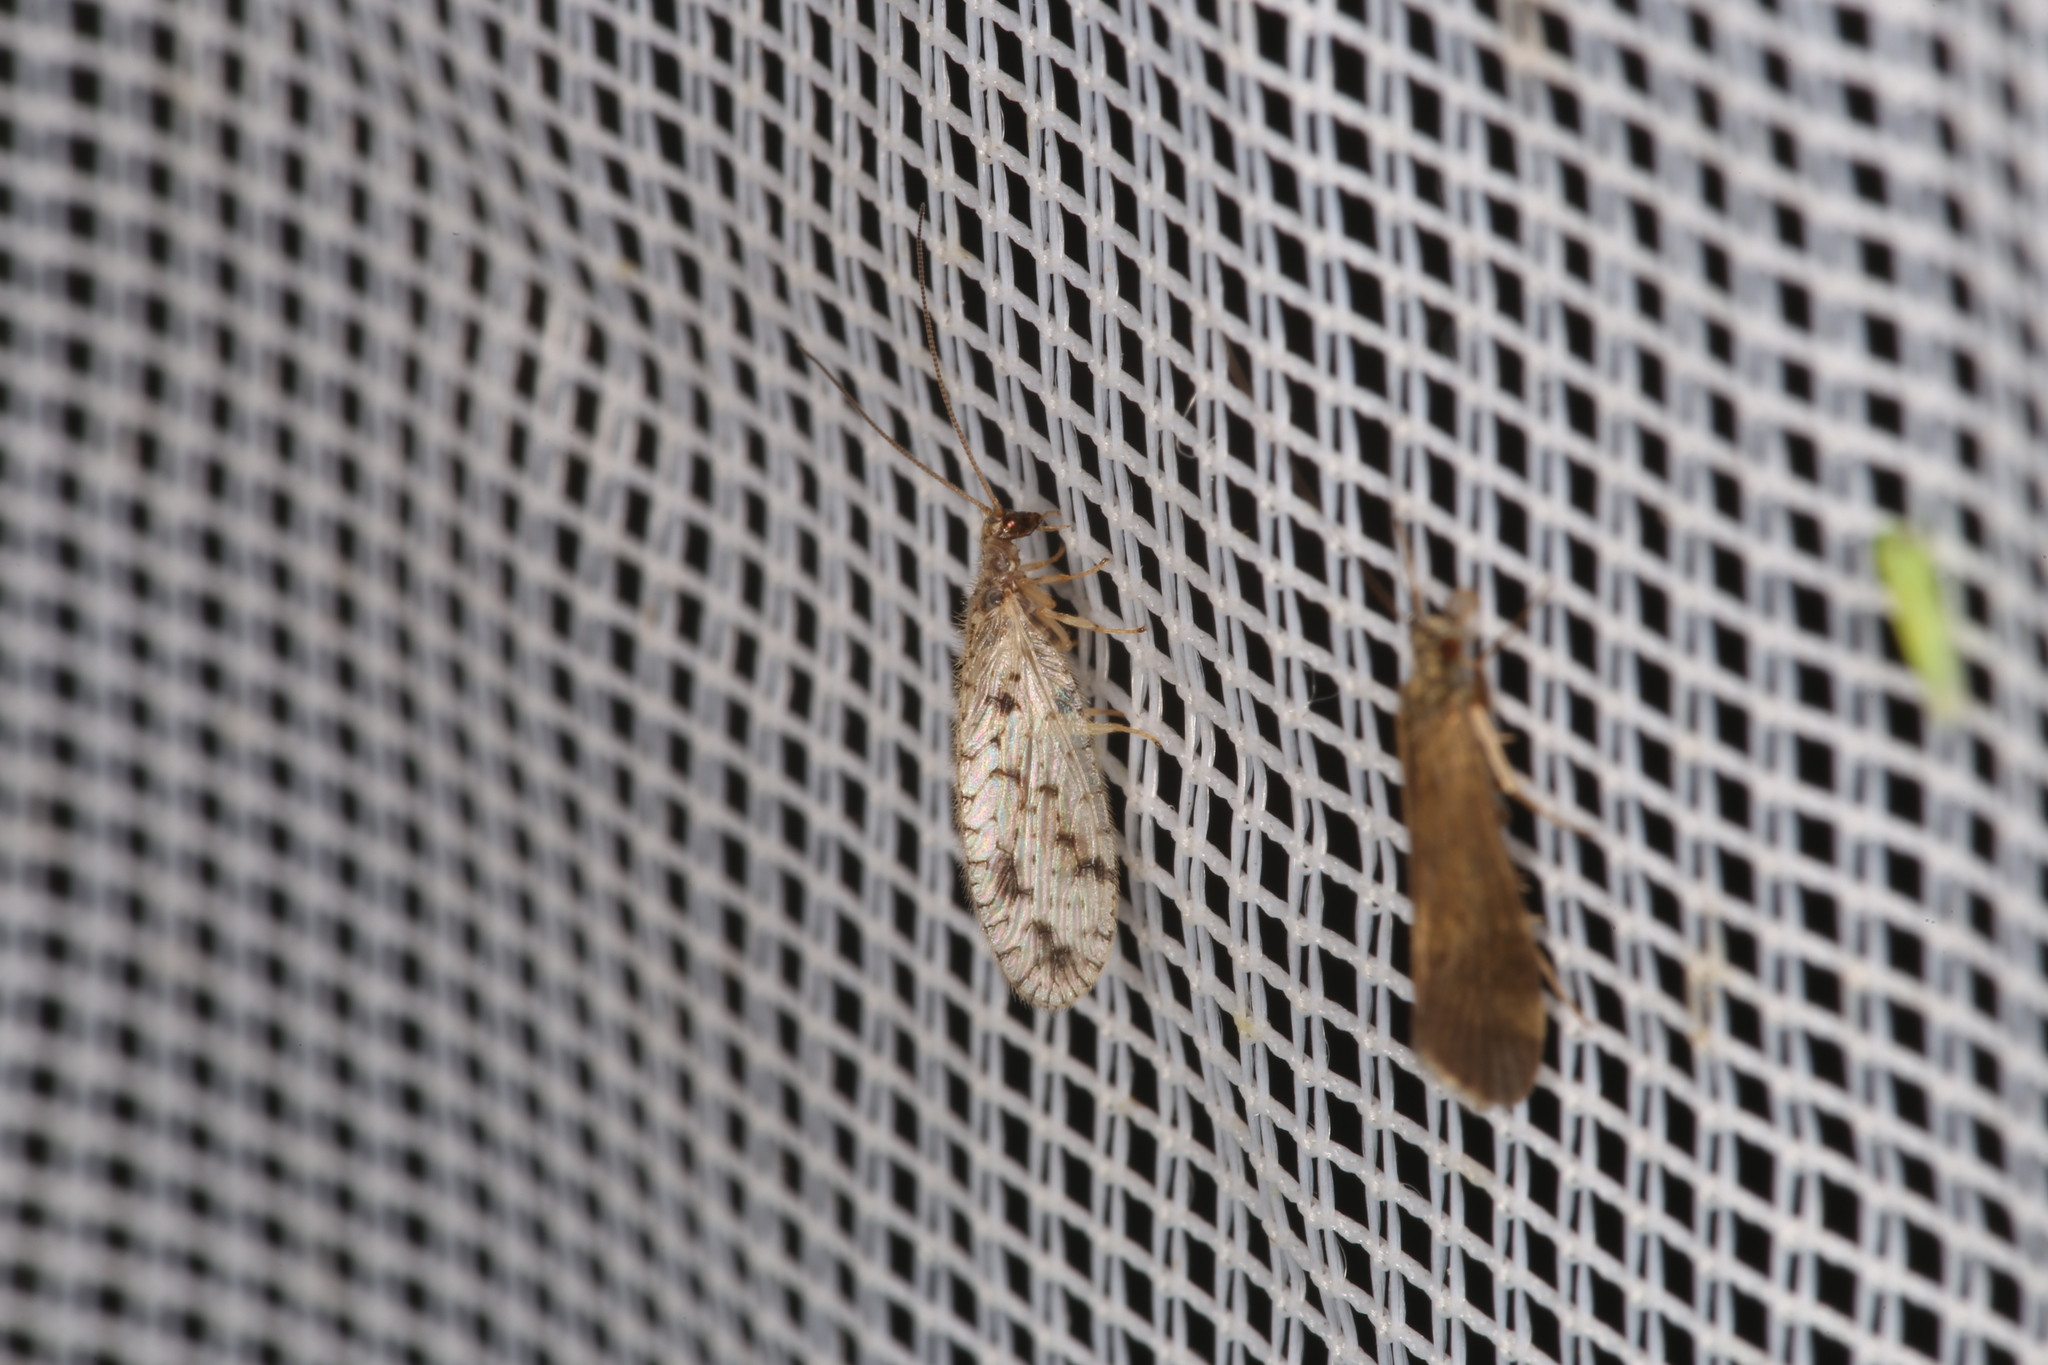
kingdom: Animalia
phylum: Arthropoda
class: Insecta
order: Neuroptera
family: Hemerobiidae
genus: Micromus
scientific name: Micromus variegatus
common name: Brown lacewing
